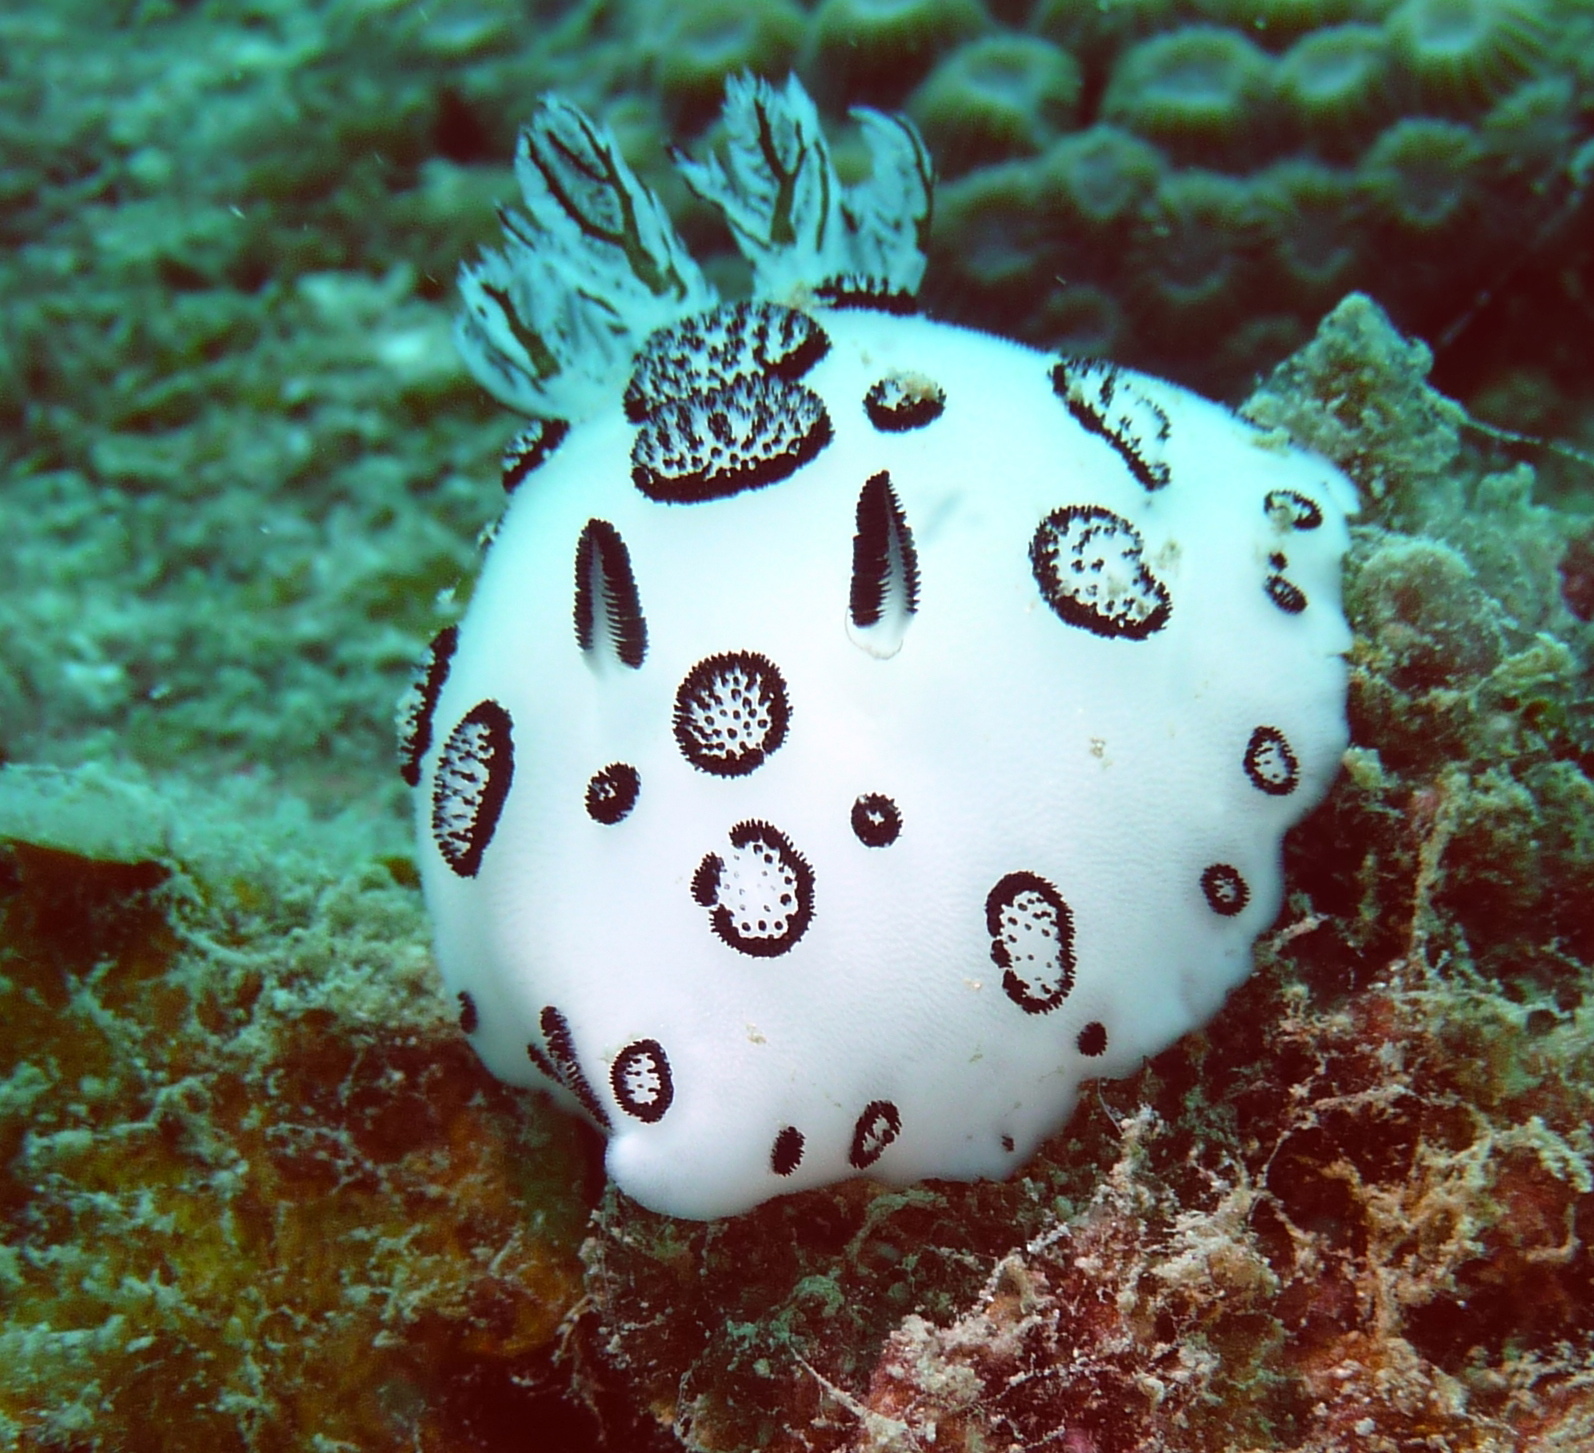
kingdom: Animalia
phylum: Mollusca
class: Gastropoda
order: Nudibranchia
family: Discodorididae
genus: Jorunna
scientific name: Jorunna funebris
